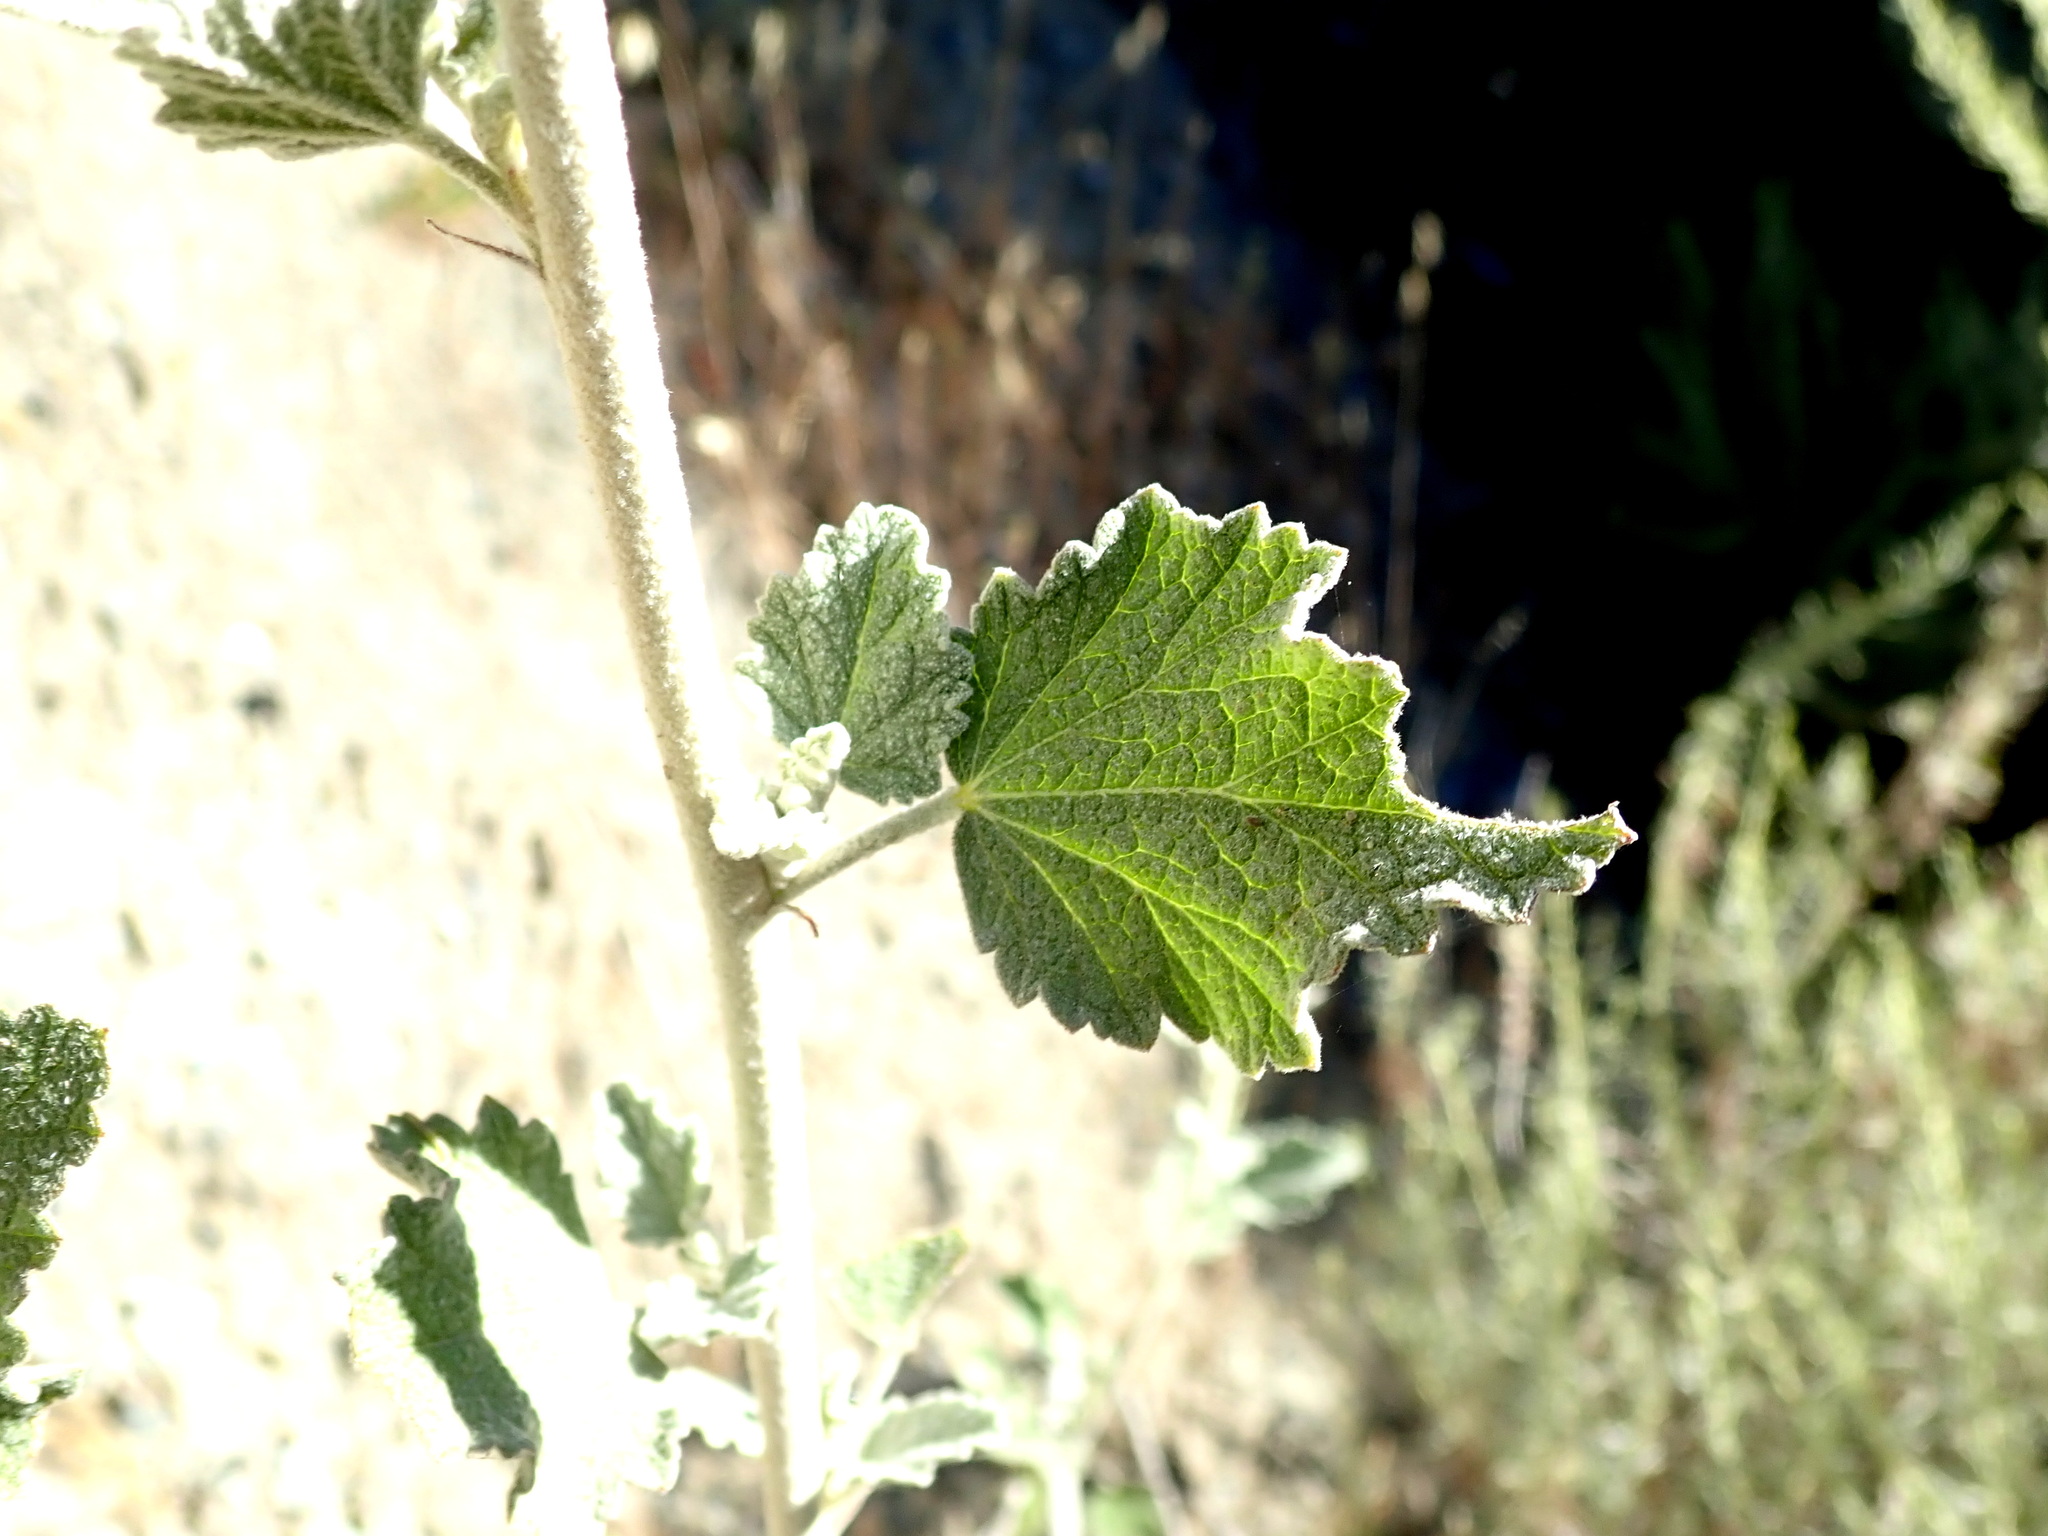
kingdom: Plantae
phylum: Tracheophyta
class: Magnoliopsida
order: Malvales
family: Malvaceae
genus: Malacothamnus
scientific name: Malacothamnus fasciculatus
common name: Sant cruz island bush-mallow
